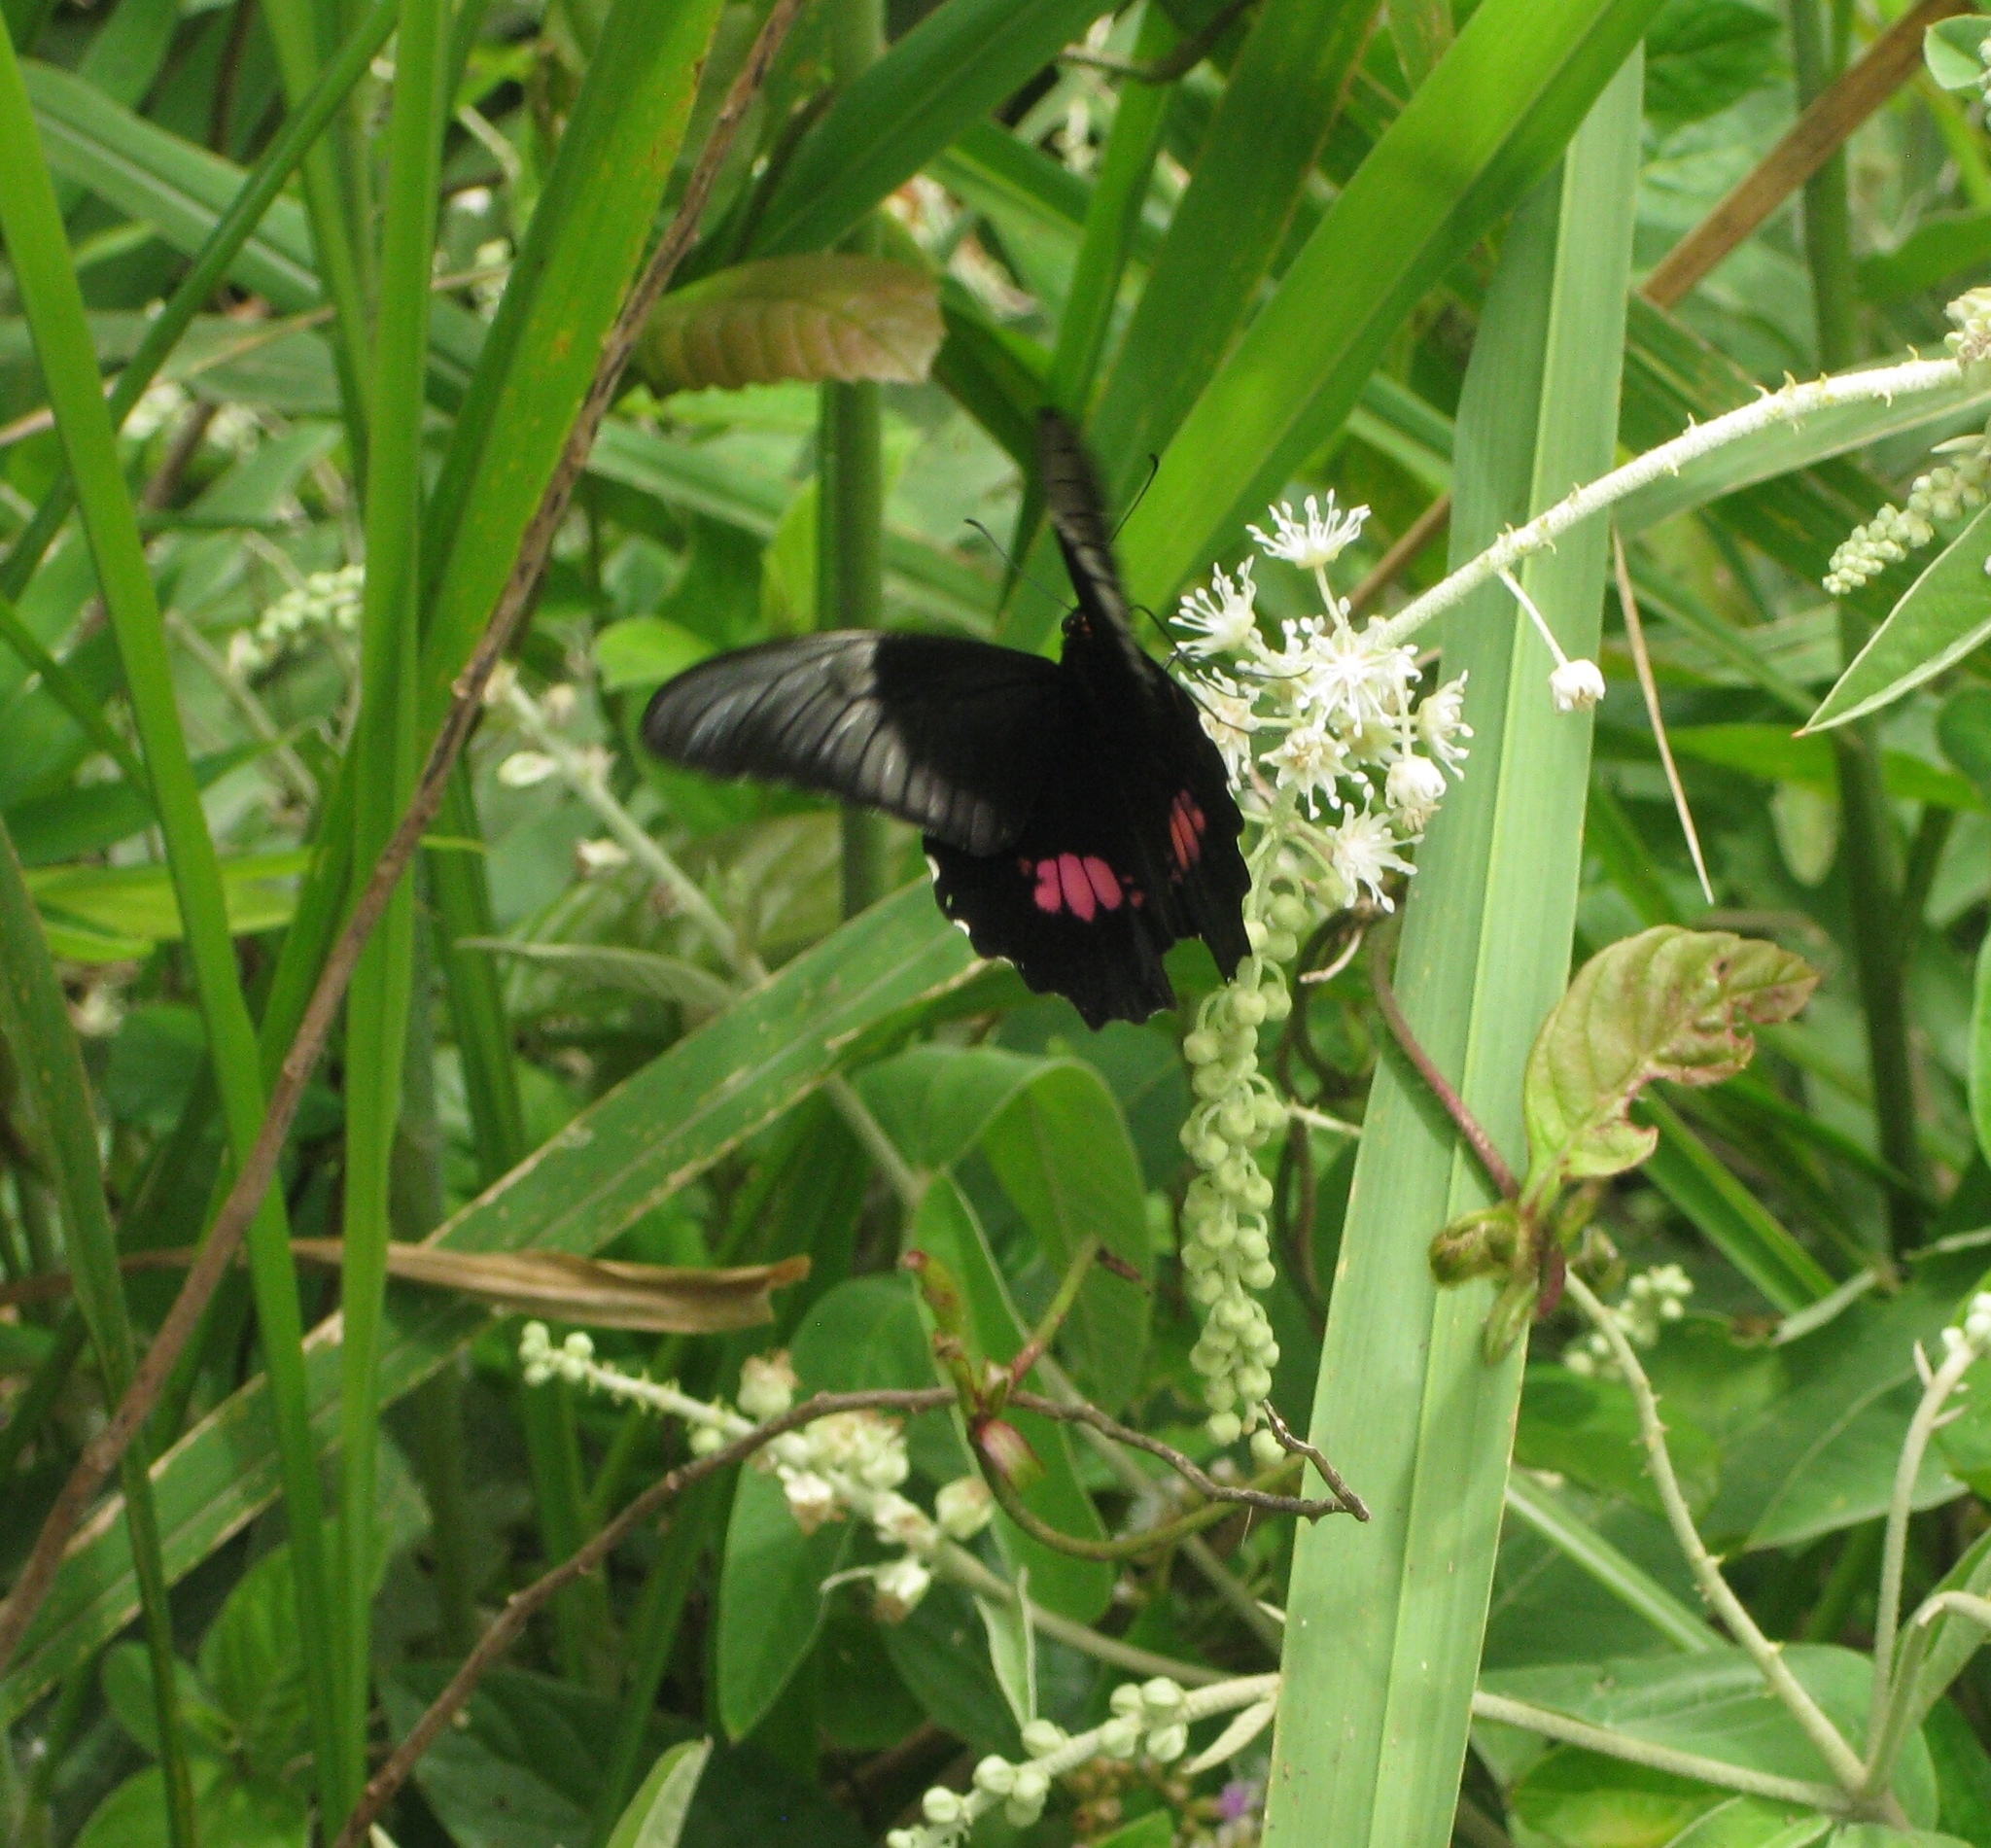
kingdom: Animalia
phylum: Arthropoda
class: Insecta
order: Lepidoptera
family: Papilionidae
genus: Papilio
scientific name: Papilio anchisiades
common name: Idaes swallowtail
